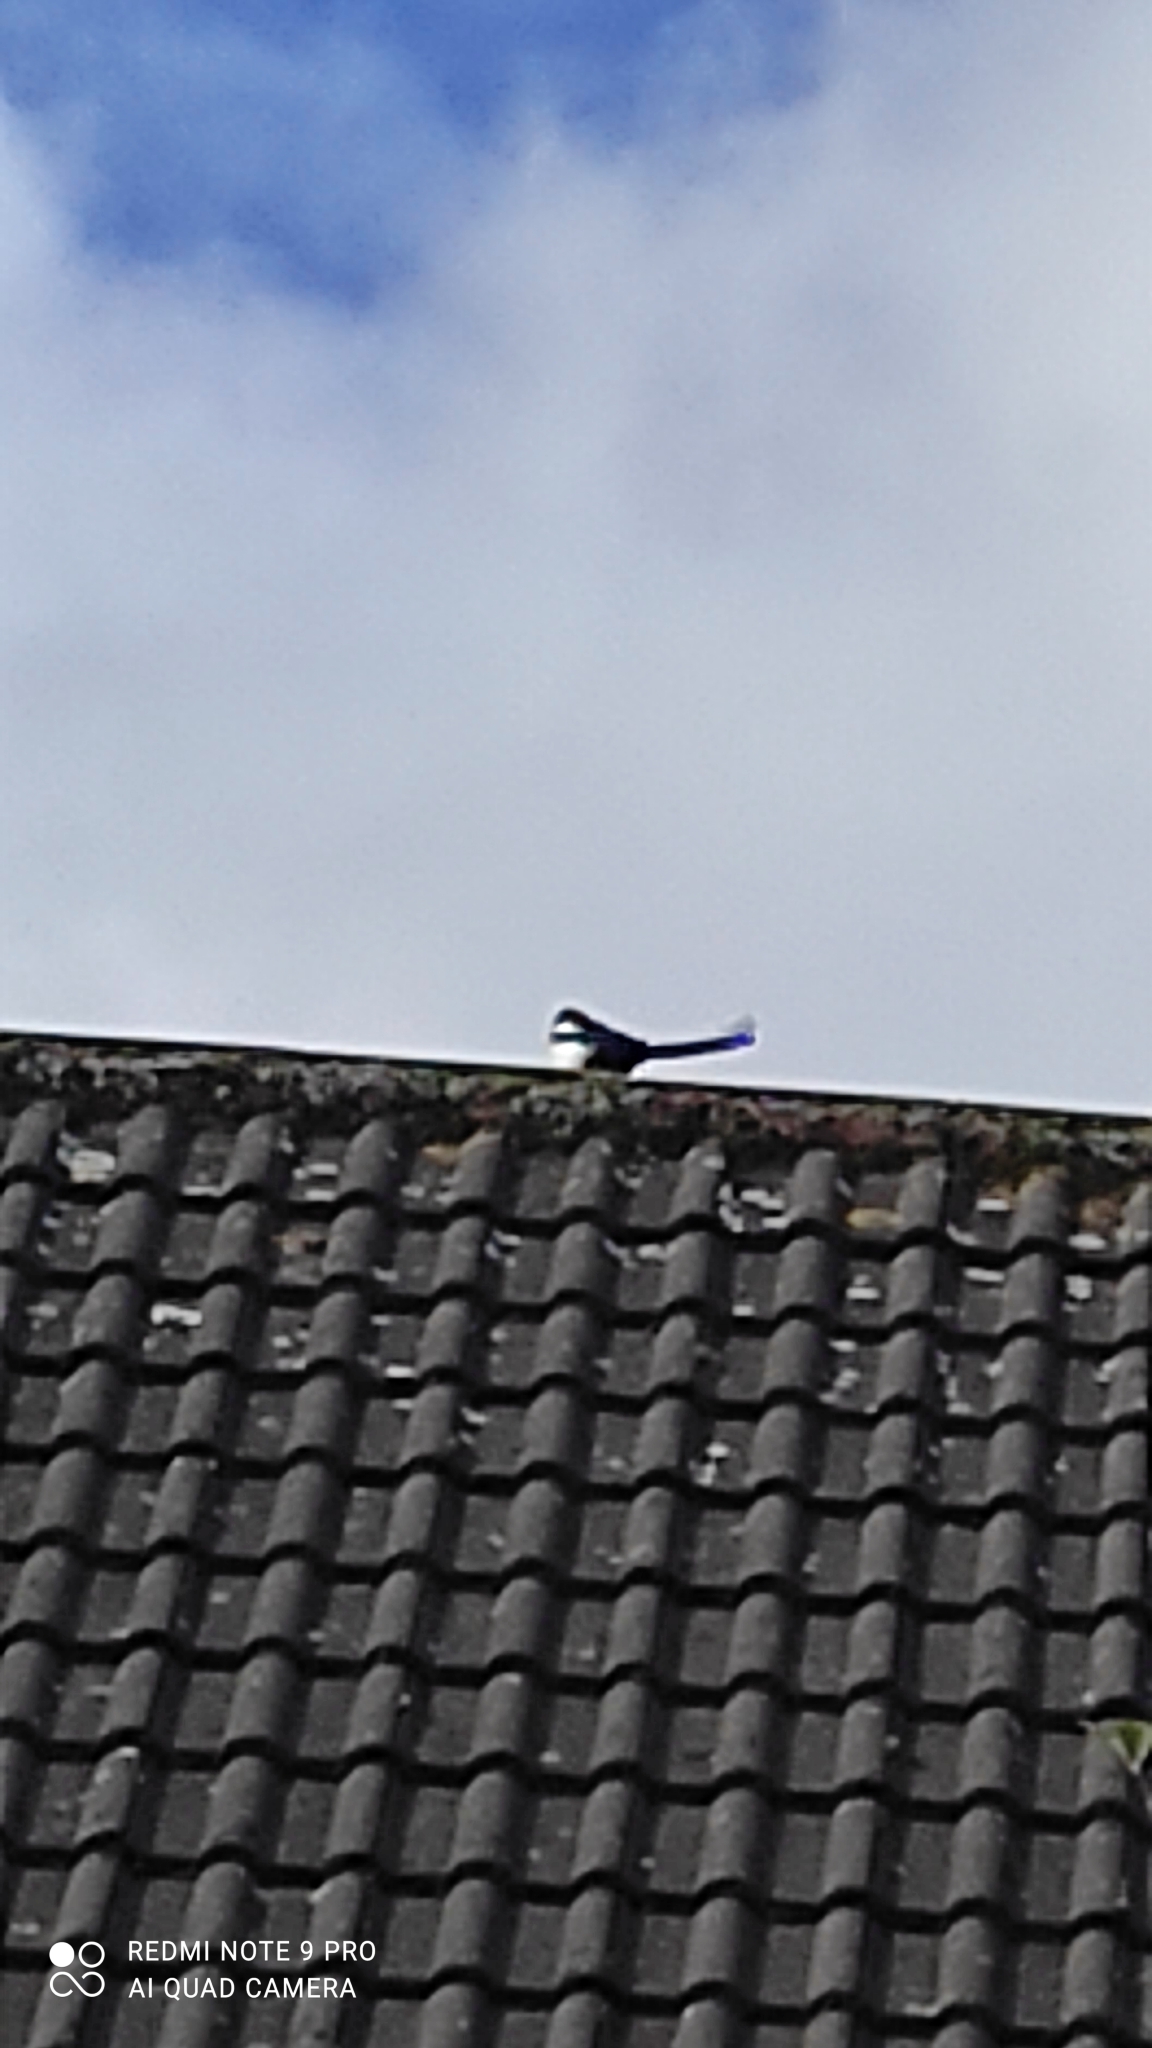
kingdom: Animalia
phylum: Chordata
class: Aves
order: Passeriformes
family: Corvidae
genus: Pica
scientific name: Pica pica
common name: Eurasian magpie
